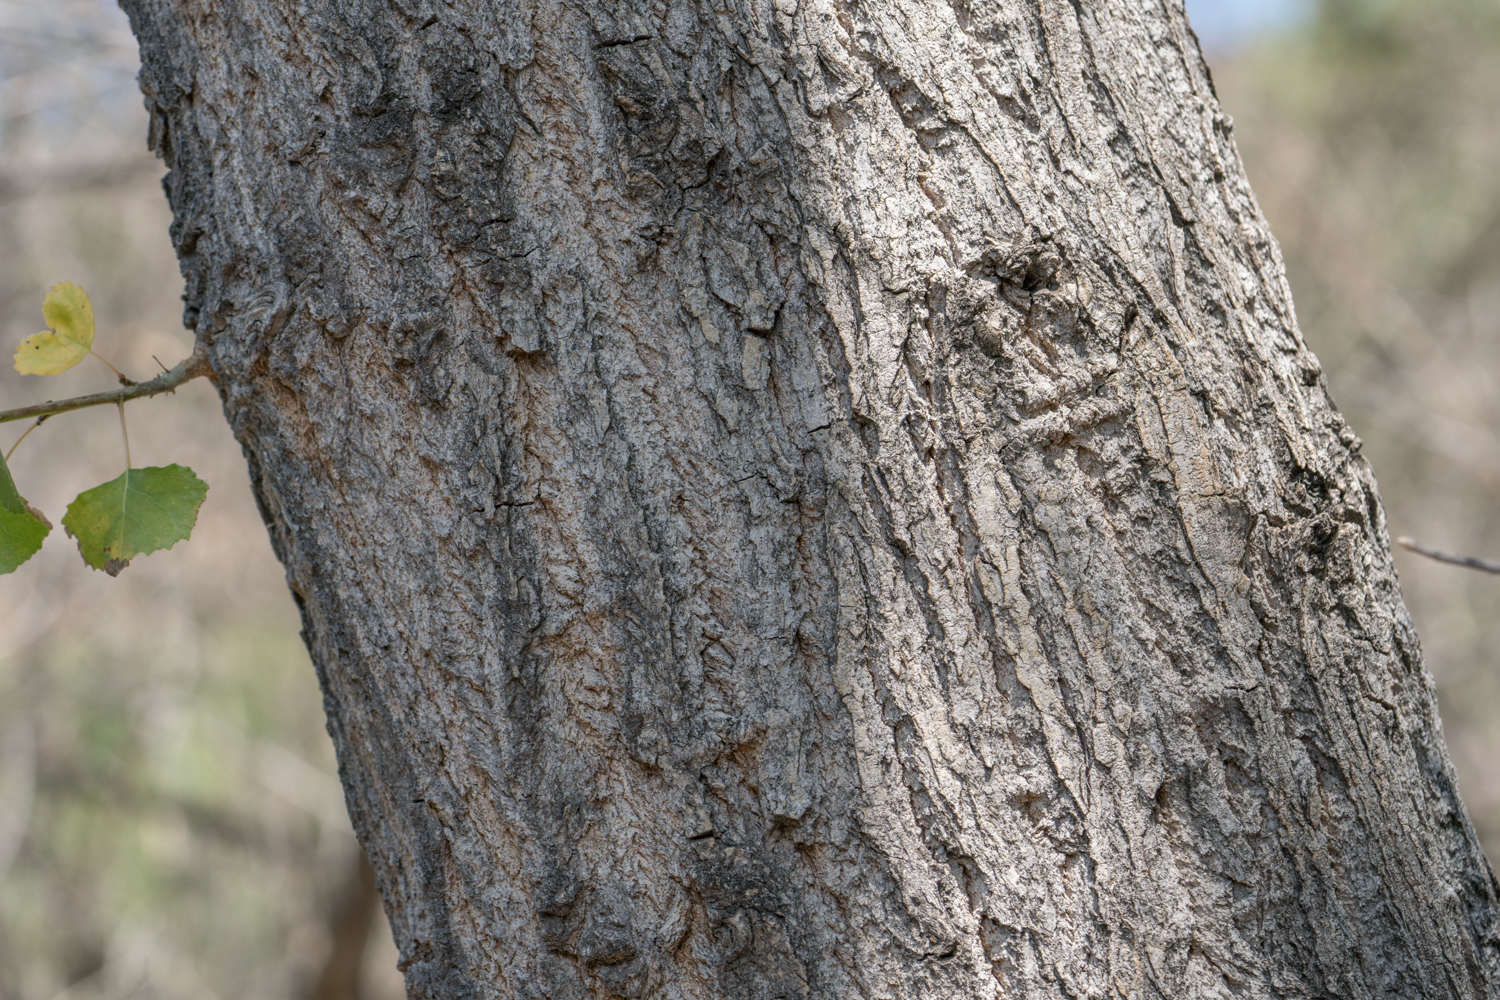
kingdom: Plantae
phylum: Tracheophyta
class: Magnoliopsida
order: Malpighiales
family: Salicaceae
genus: Populus
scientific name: Populus fremontii
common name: Fremont's cottonwood
